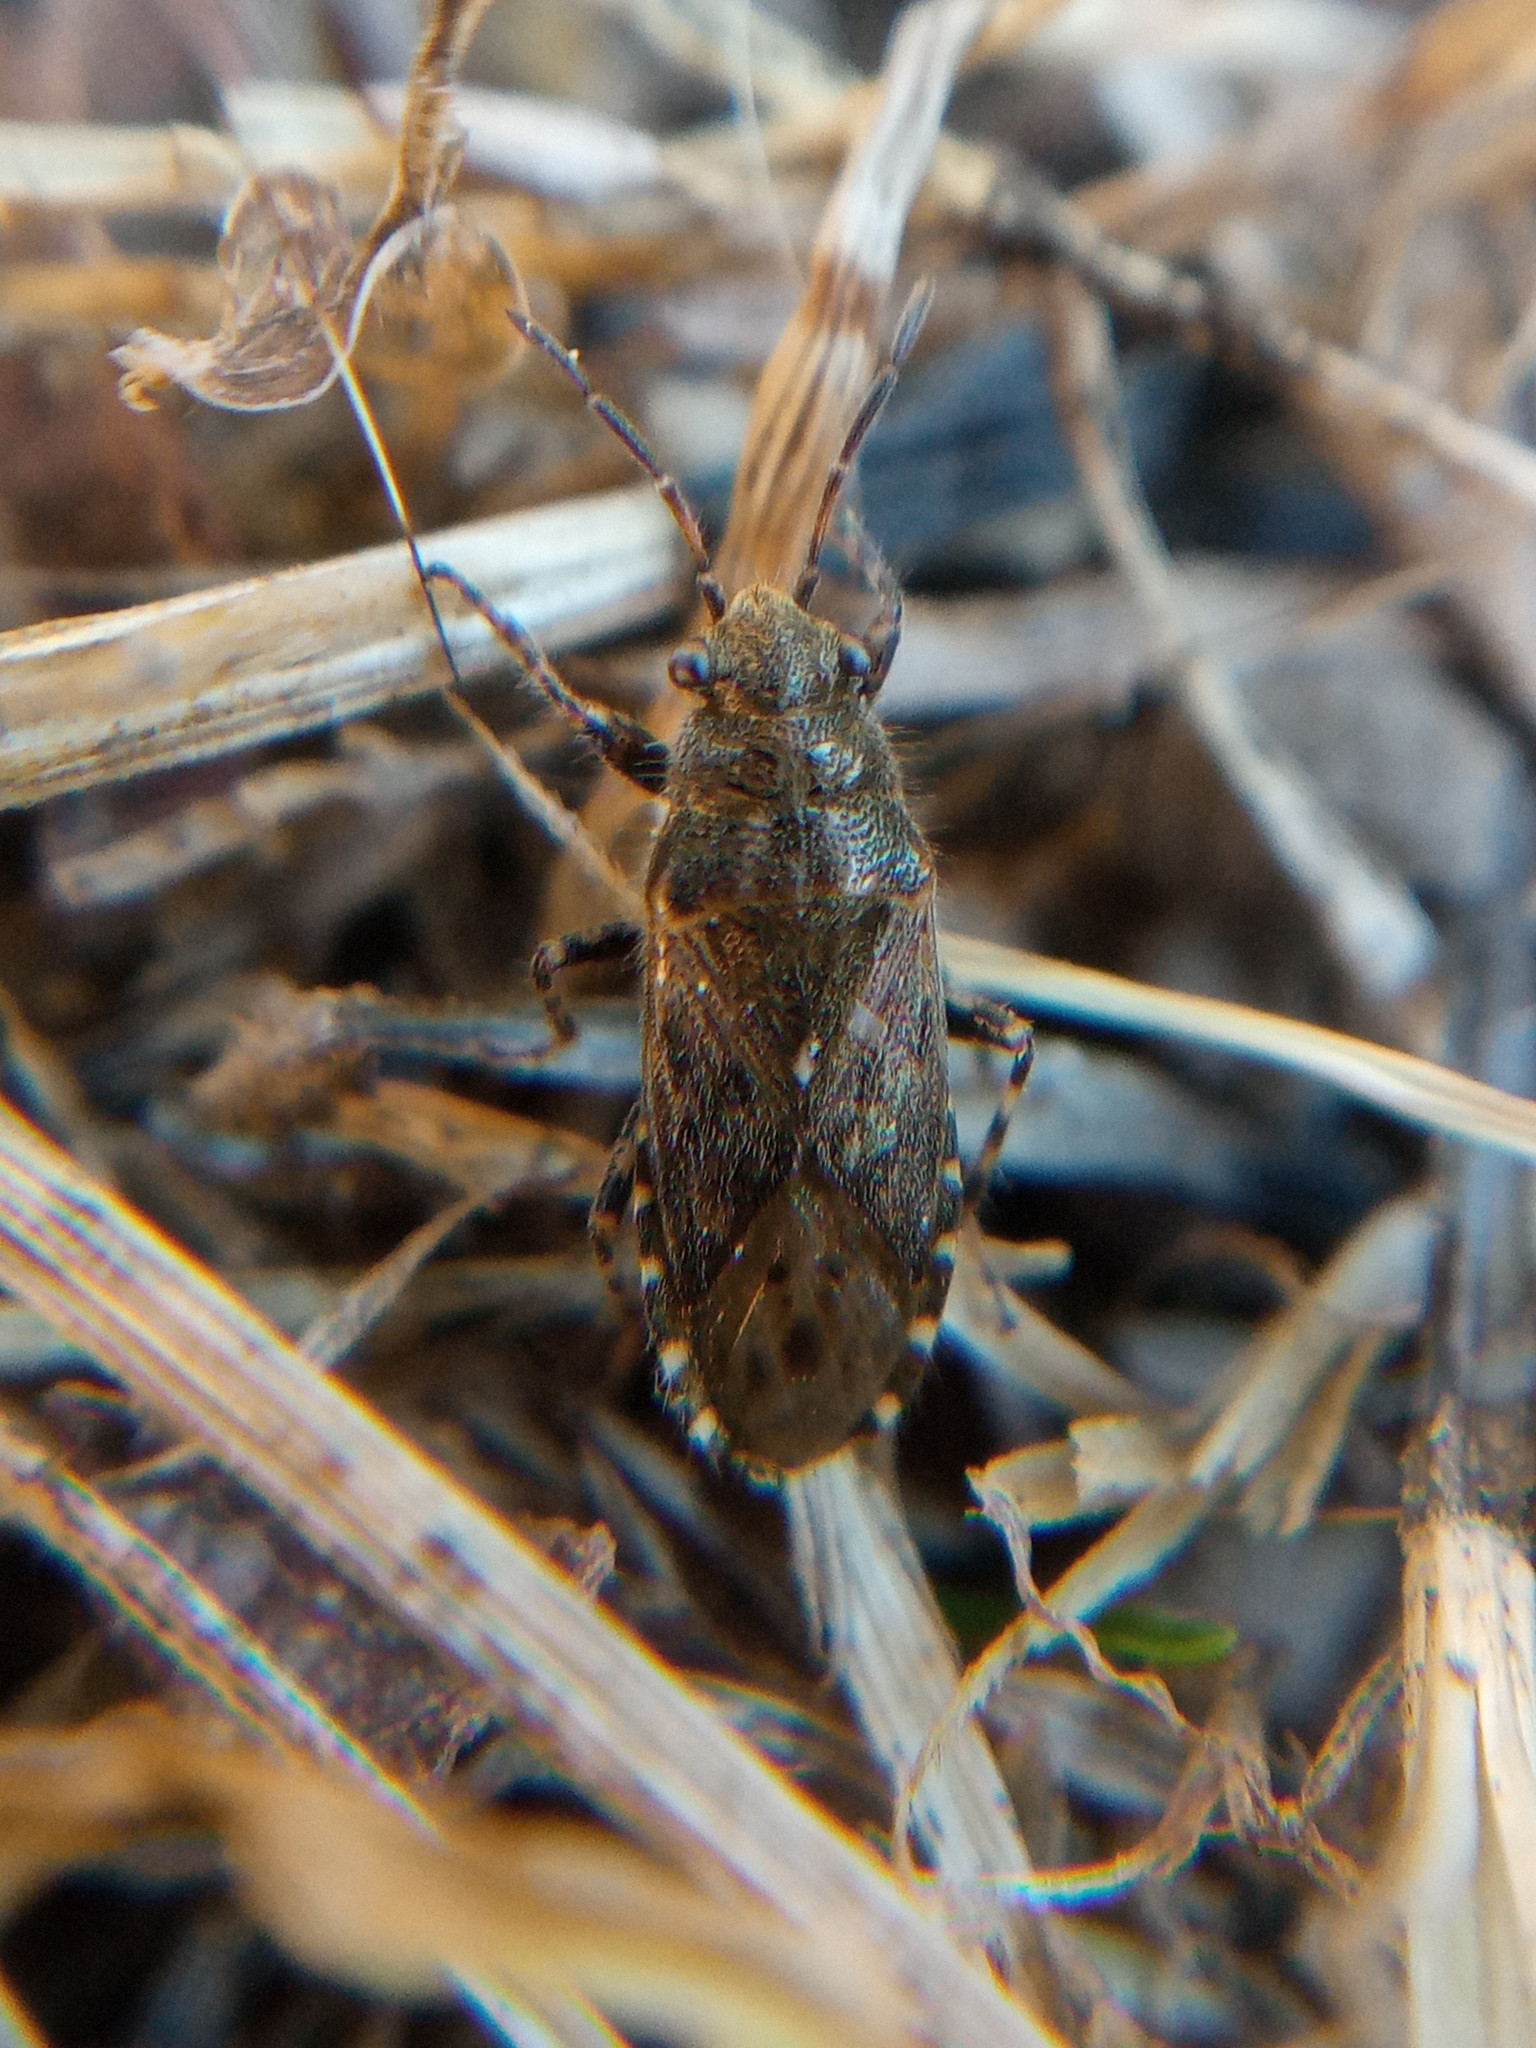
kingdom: Animalia
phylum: Arthropoda
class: Insecta
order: Hemiptera
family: Heterogastridae
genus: Heterogaster
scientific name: Heterogaster urticae
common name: Seed bug
